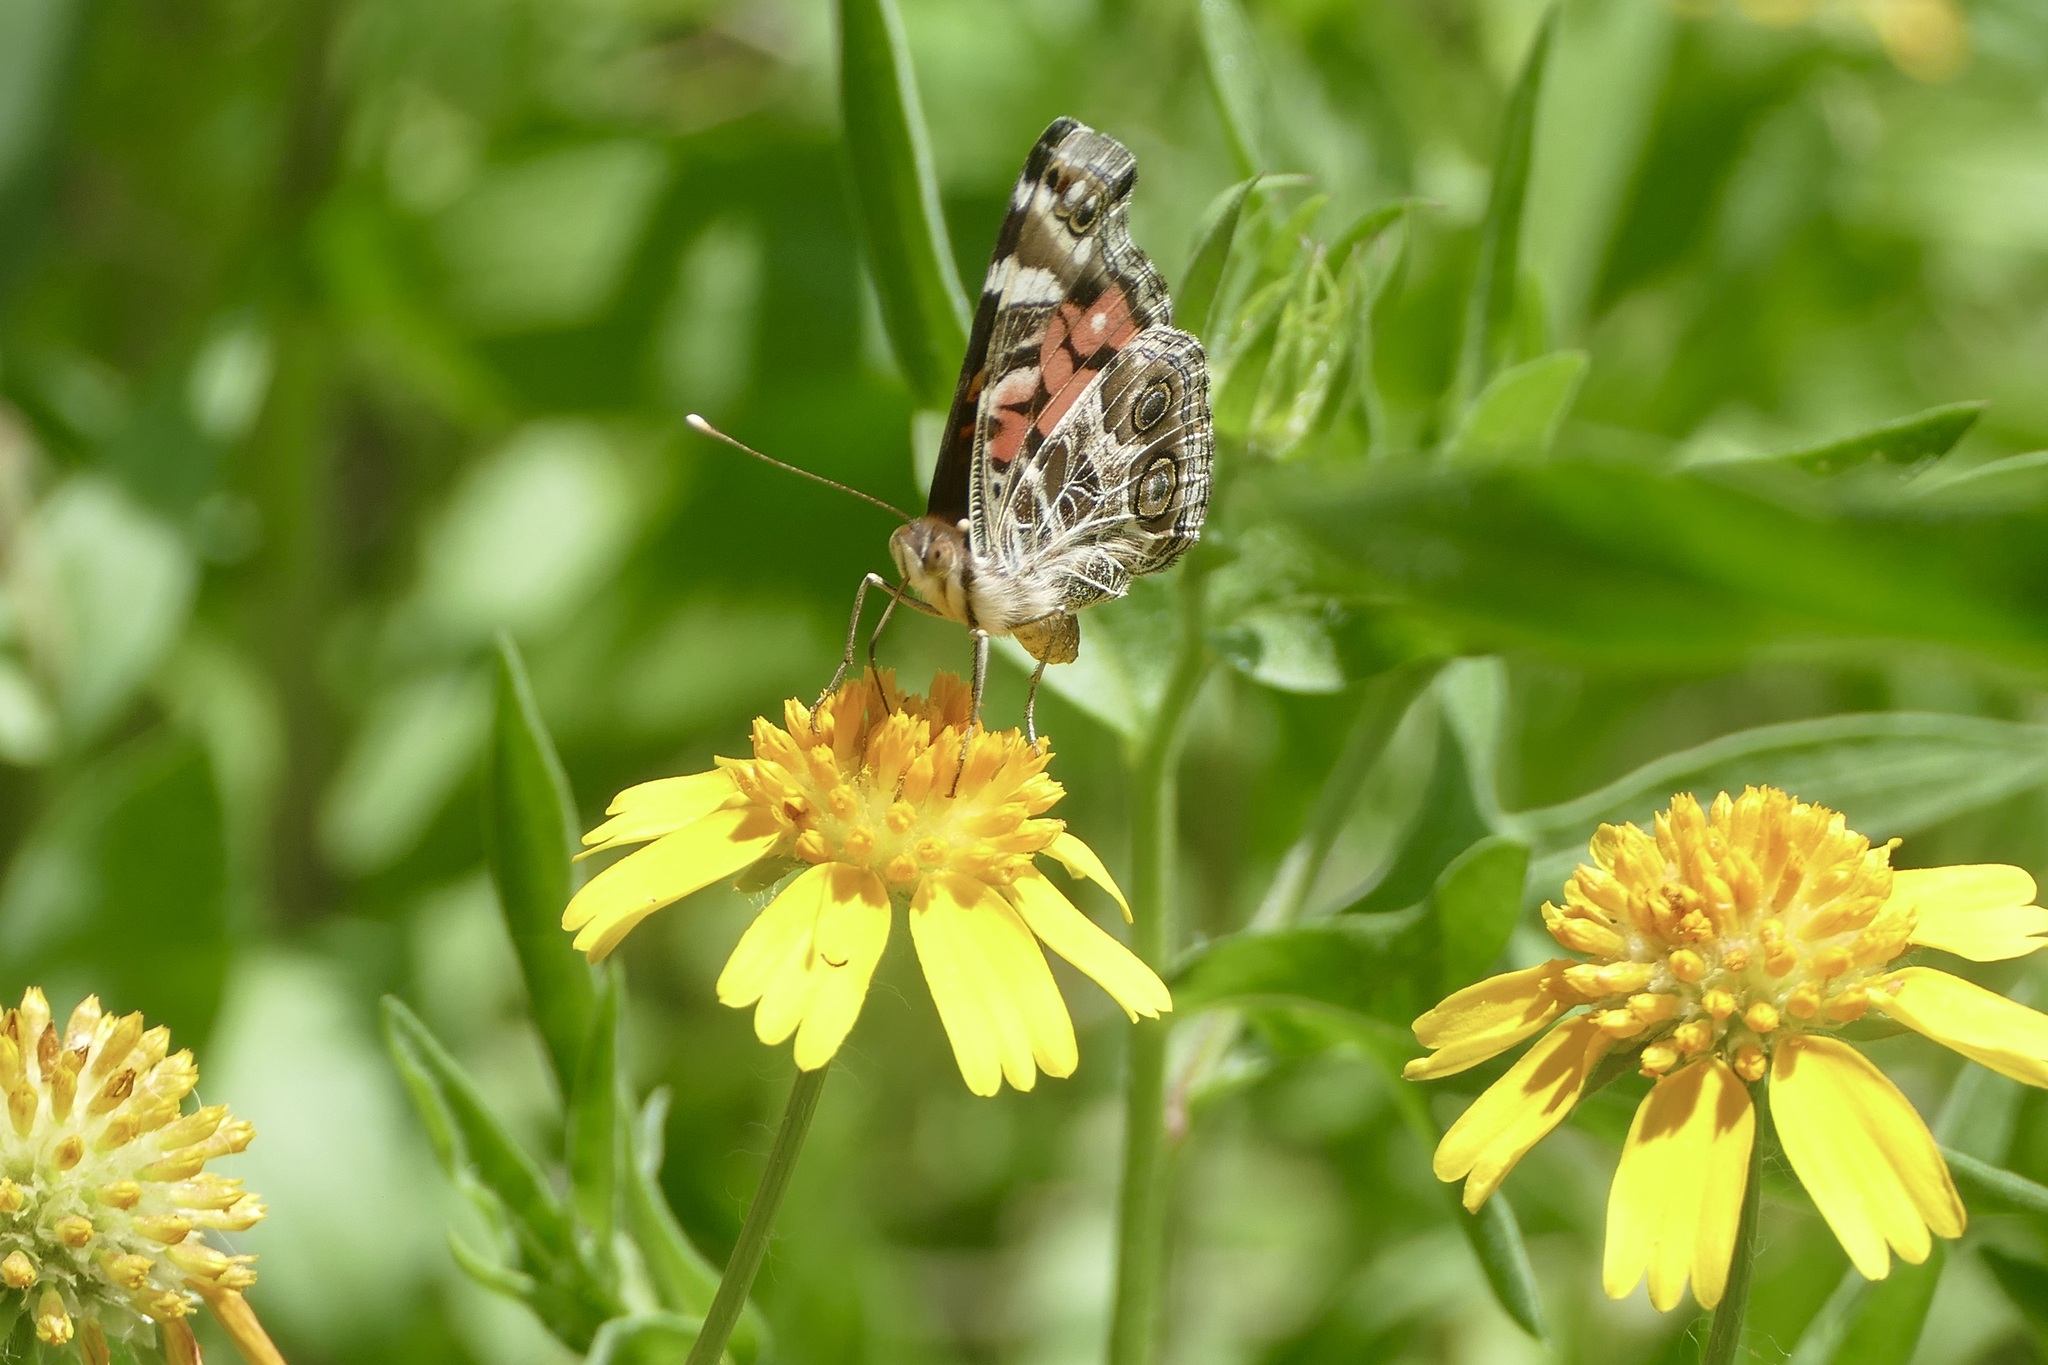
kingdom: Animalia
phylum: Arthropoda
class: Insecta
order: Lepidoptera
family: Nymphalidae
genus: Vanessa
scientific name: Vanessa virginiensis
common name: American lady
